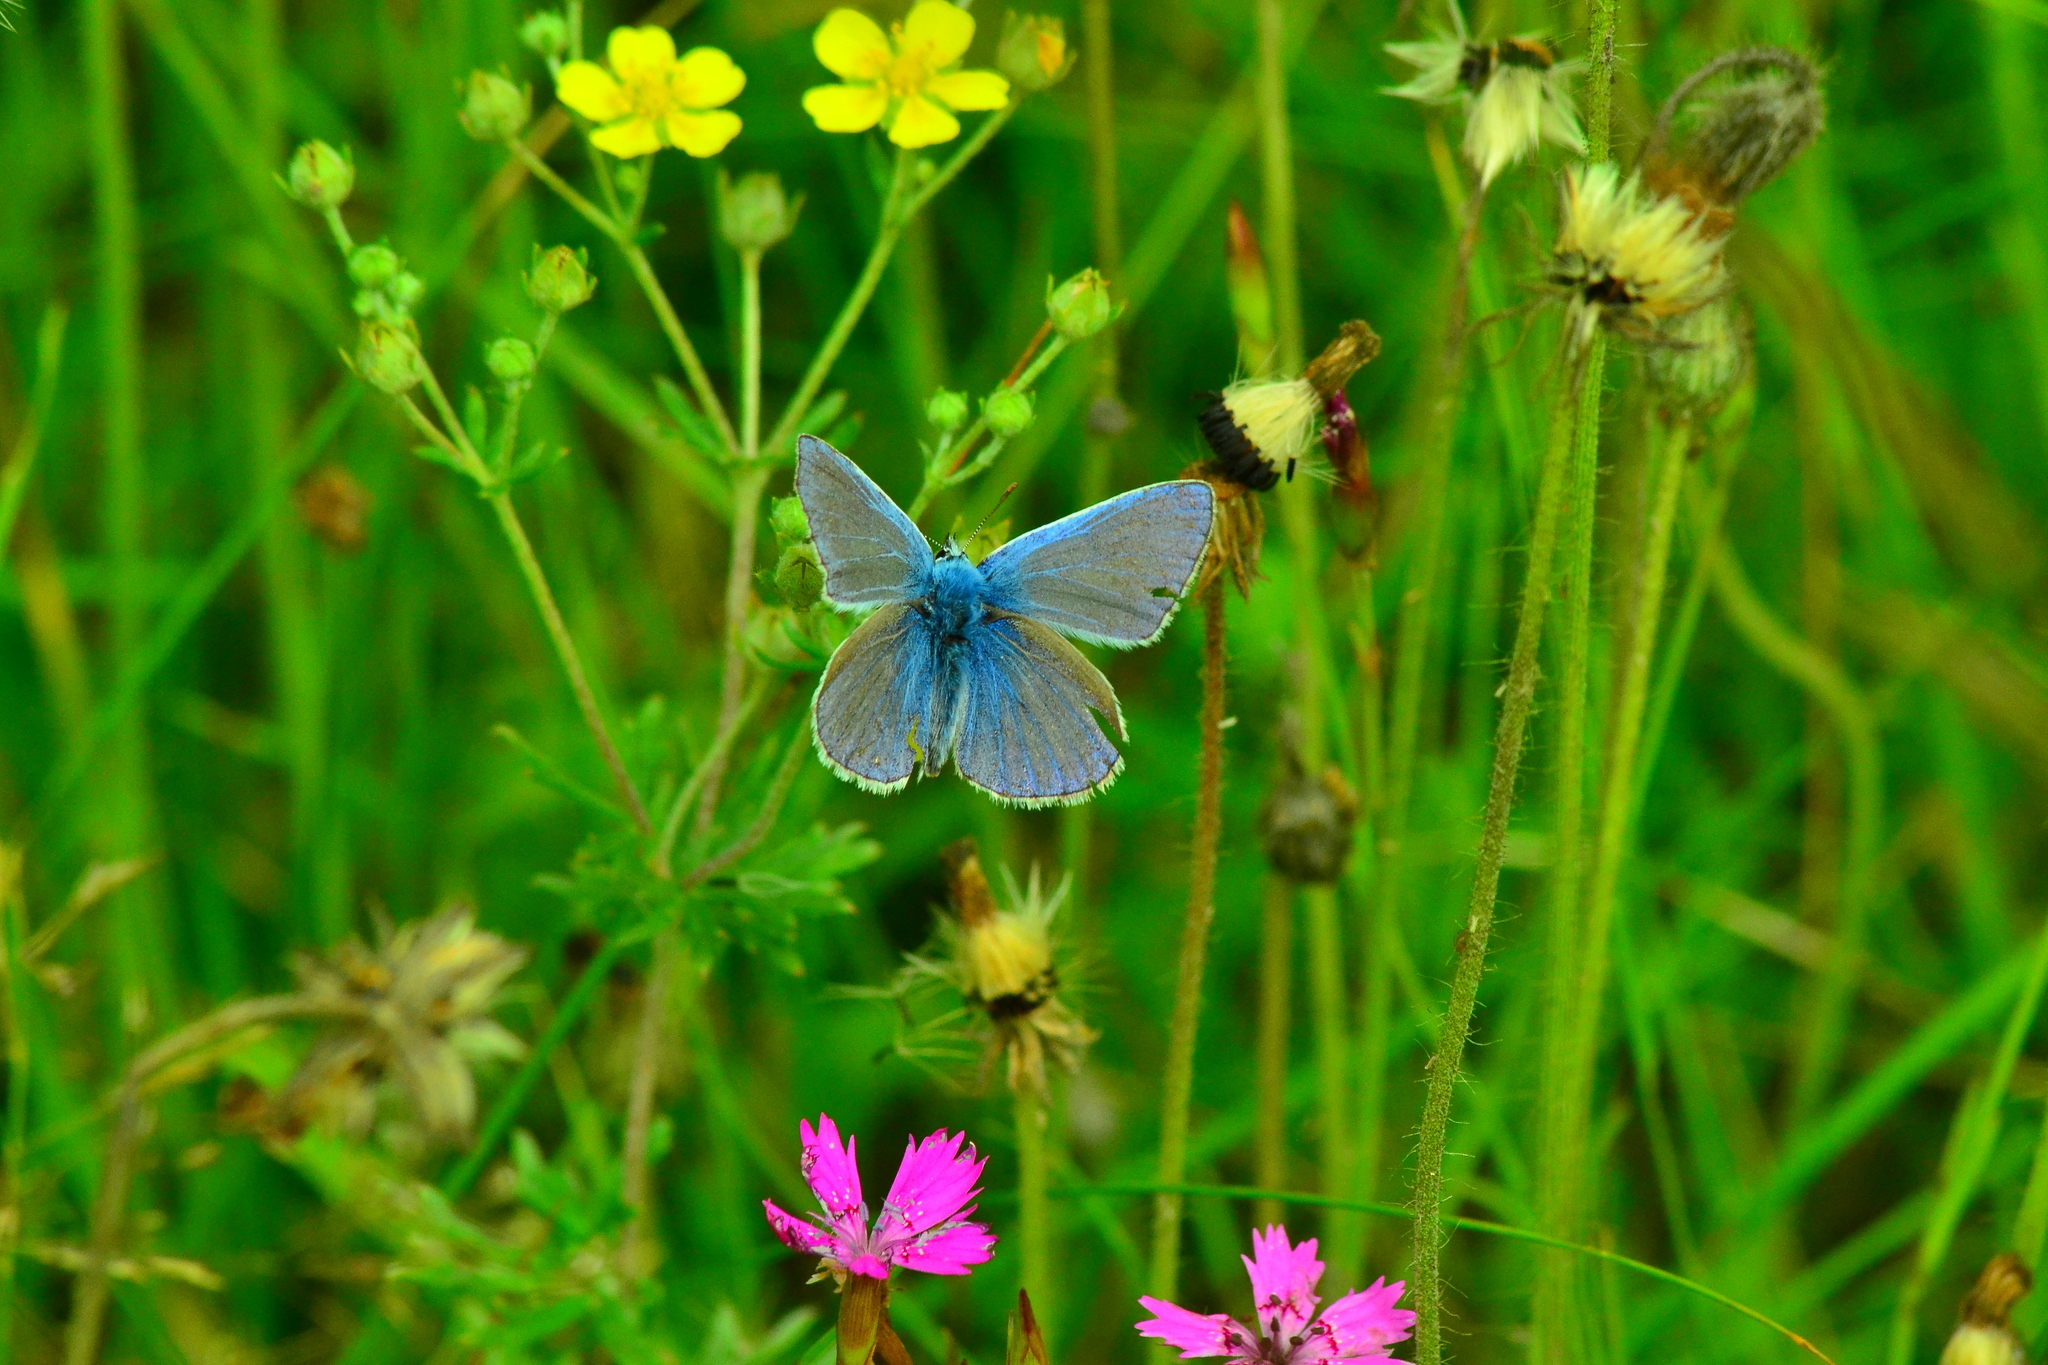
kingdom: Animalia
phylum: Arthropoda
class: Insecta
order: Lepidoptera
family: Lycaenidae
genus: Polyommatus
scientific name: Polyommatus icarus
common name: Common blue
